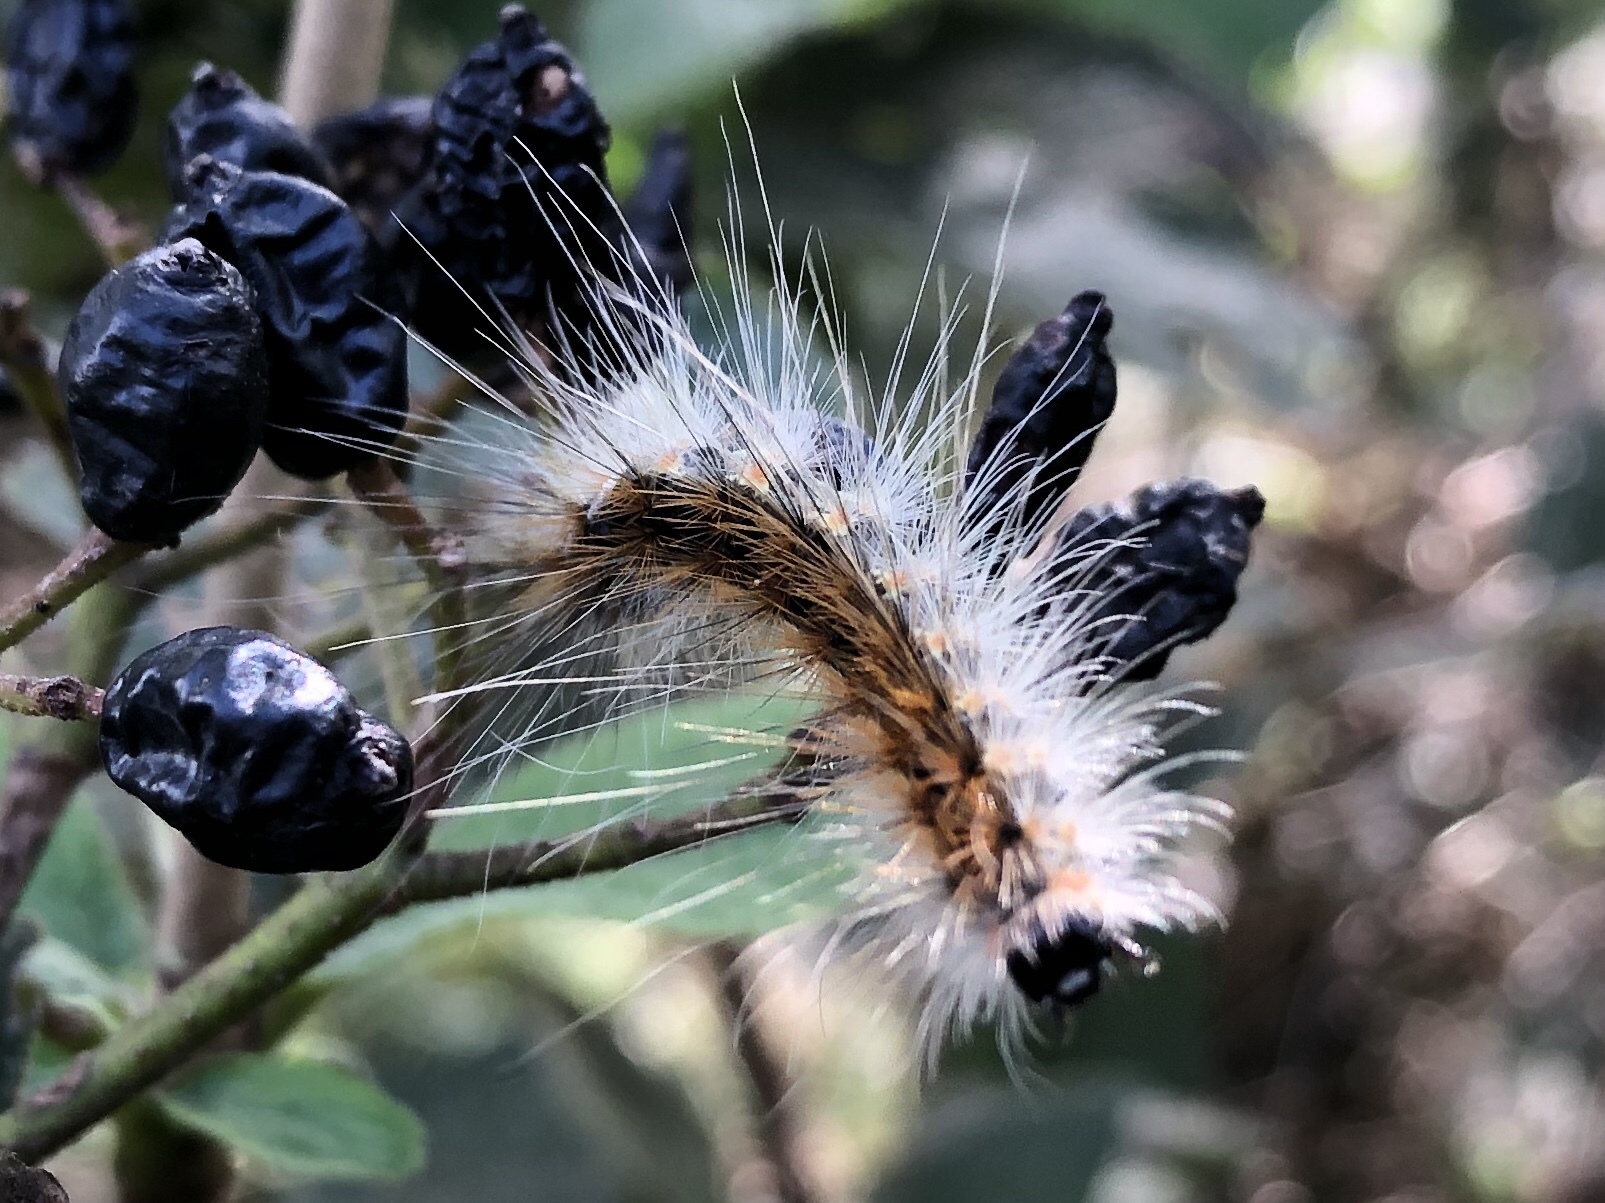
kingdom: Animalia
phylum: Arthropoda
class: Insecta
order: Lepidoptera
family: Erebidae
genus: Hyphantria
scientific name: Hyphantria cunea
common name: American white moth
